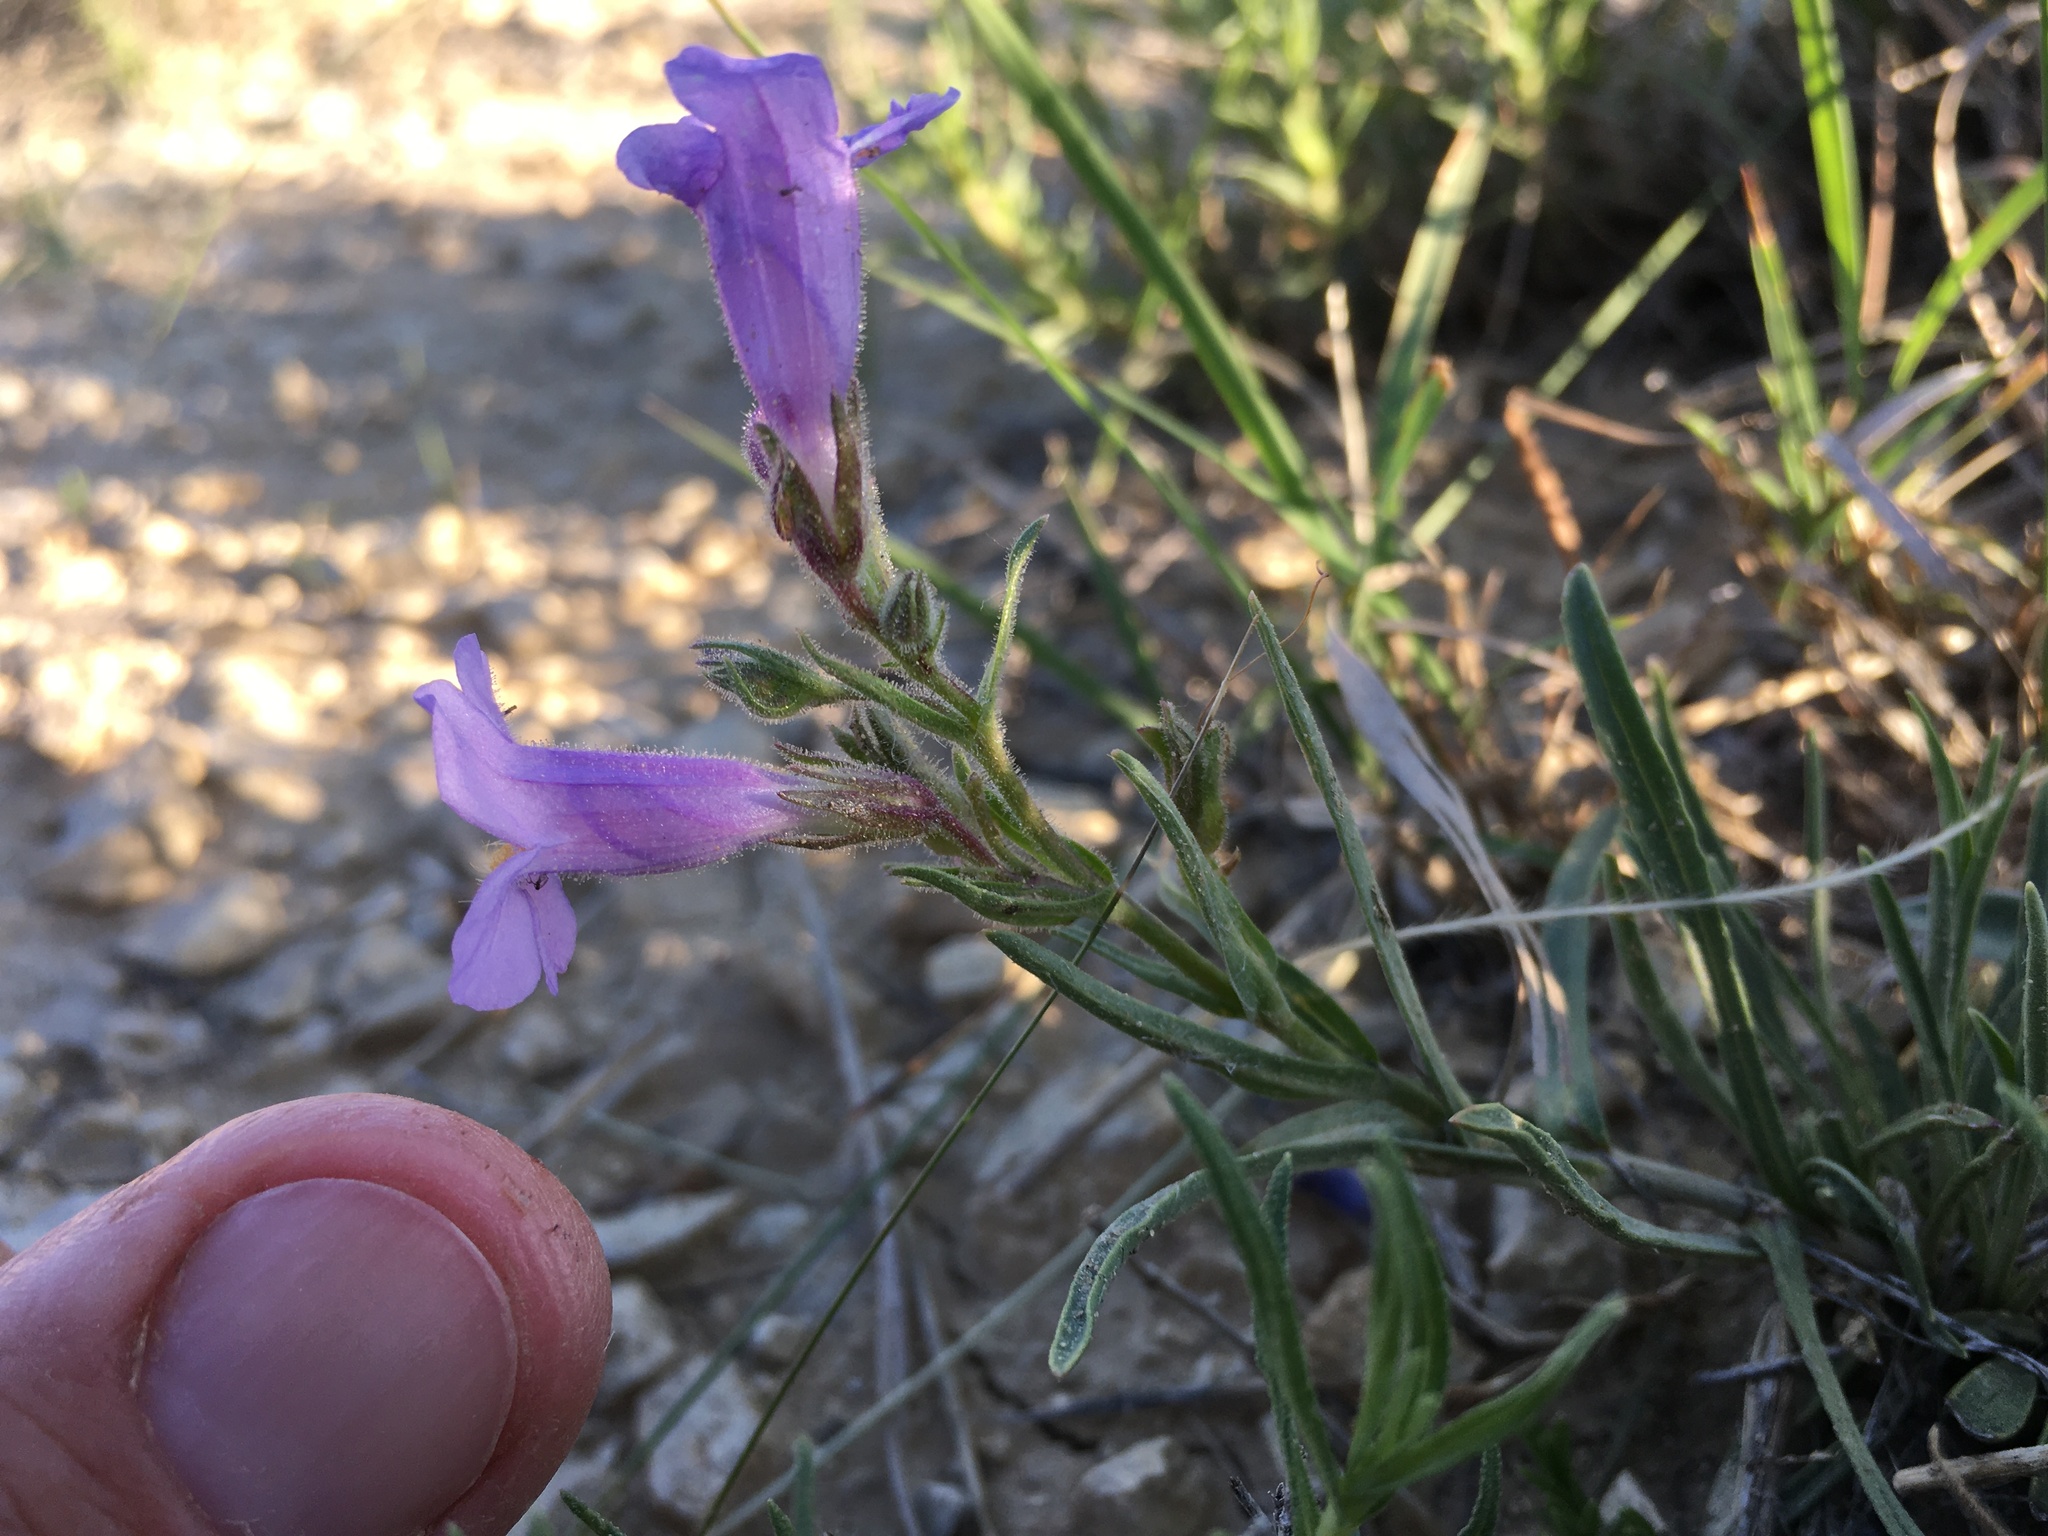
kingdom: Plantae
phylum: Tracheophyta
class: Magnoliopsida
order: Lamiales
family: Plantaginaceae
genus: Penstemon
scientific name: Penstemon auriberbis
